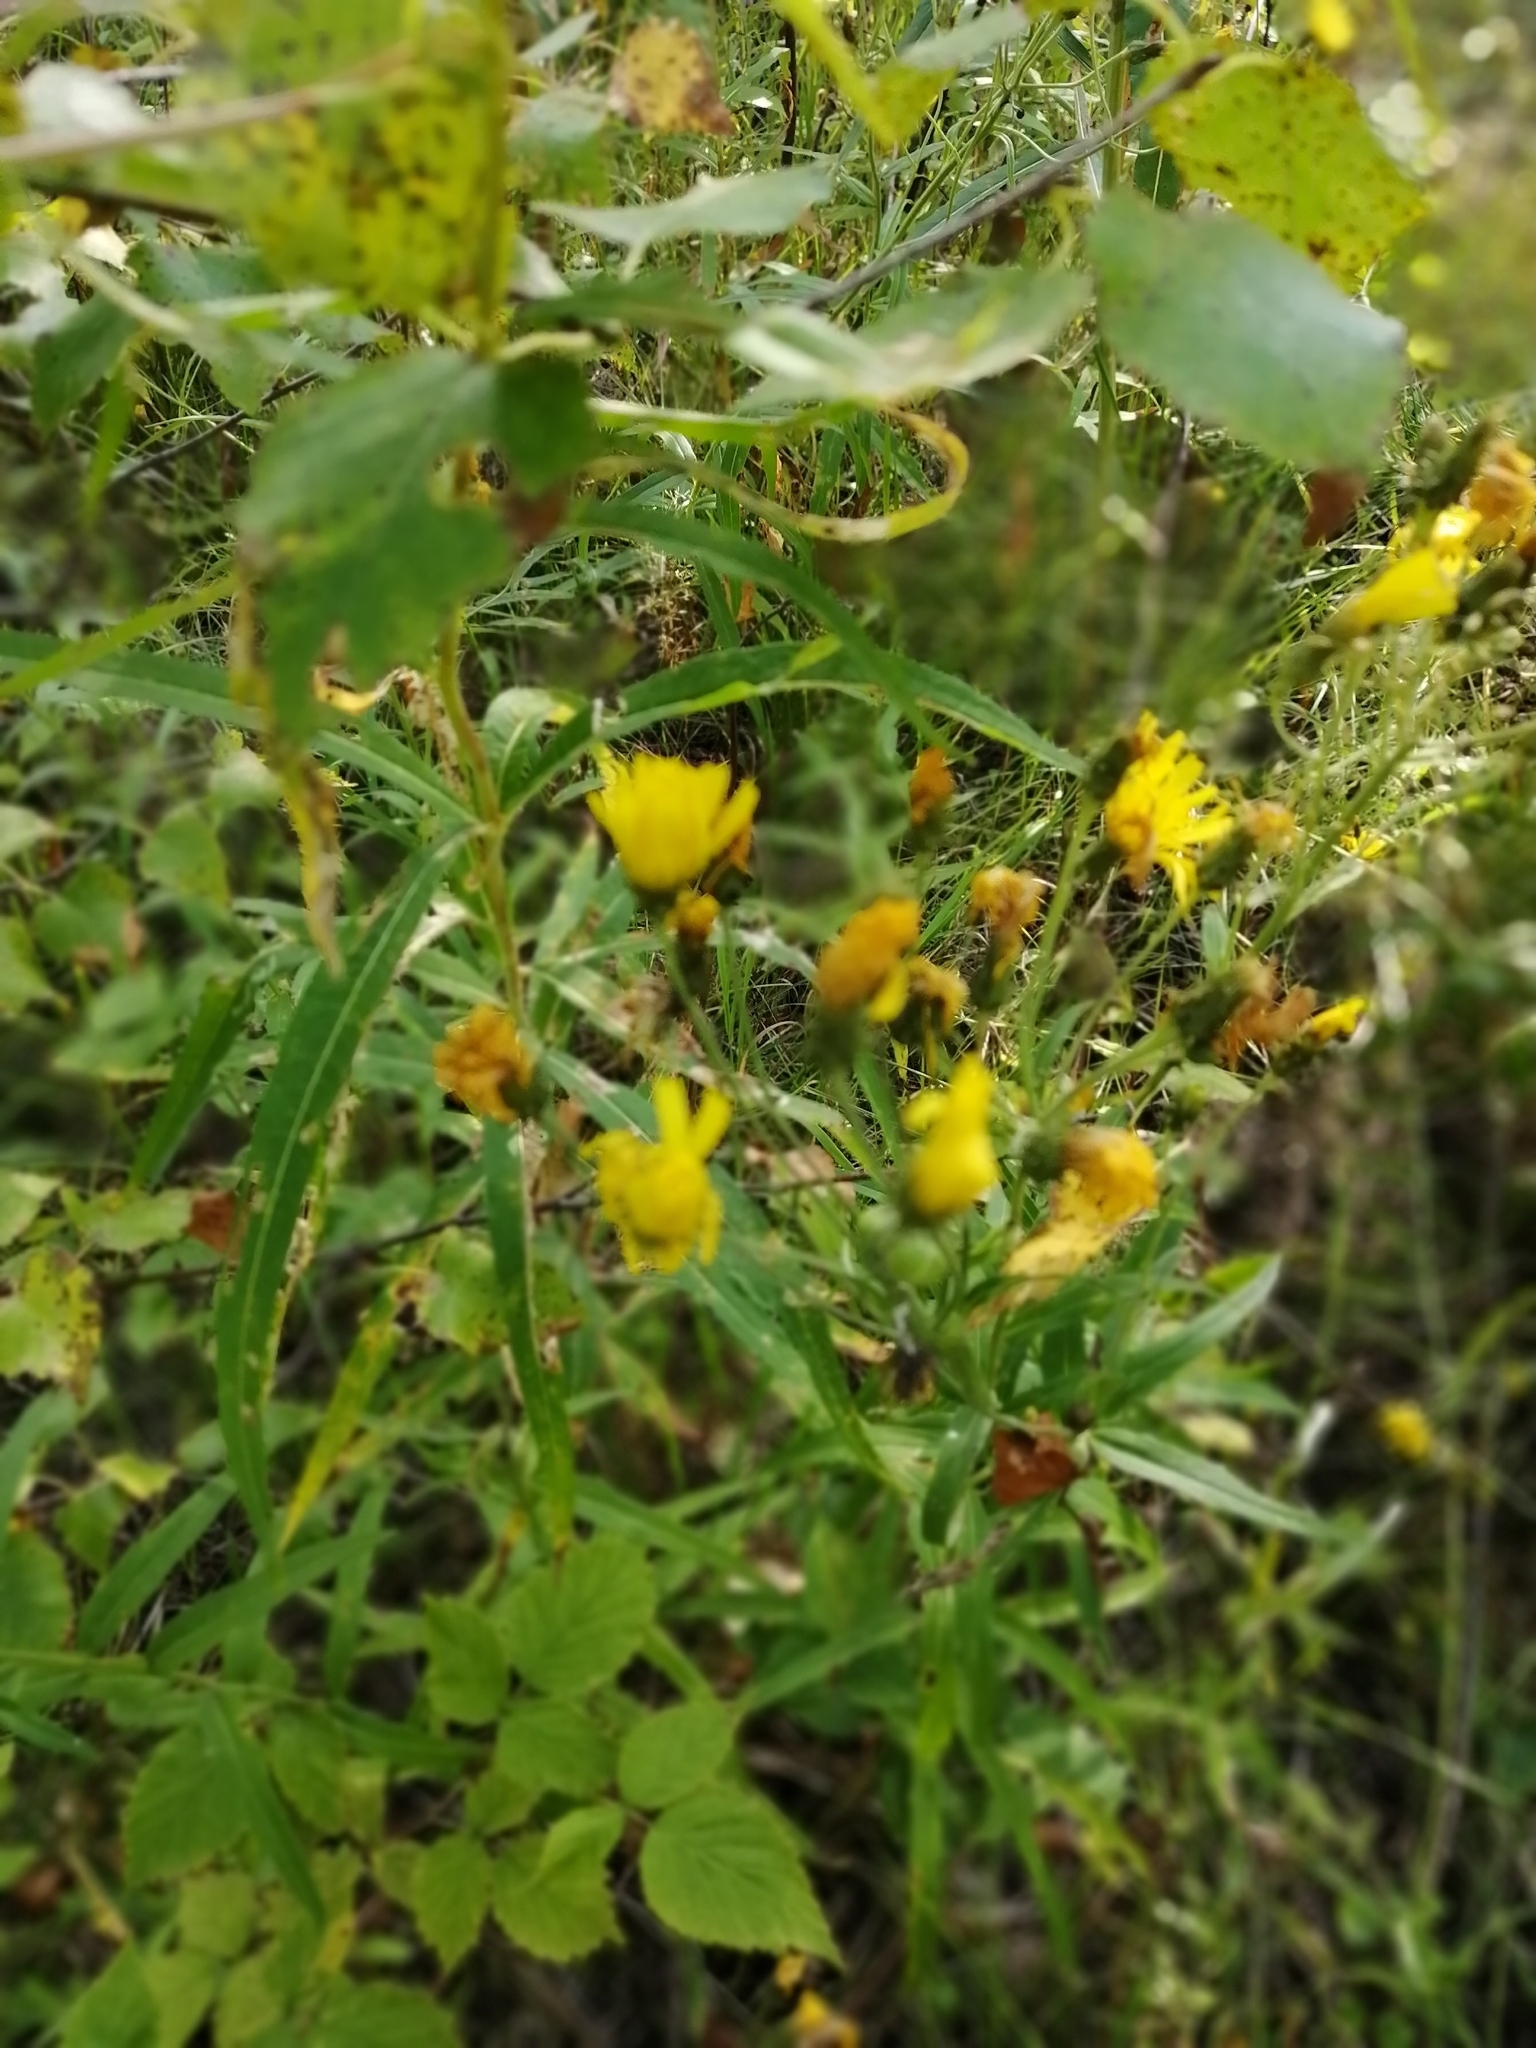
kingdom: Plantae
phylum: Tracheophyta
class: Magnoliopsida
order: Asterales
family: Asteraceae
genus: Hieracium
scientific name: Hieracium umbellatum
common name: Northern hawkweed
